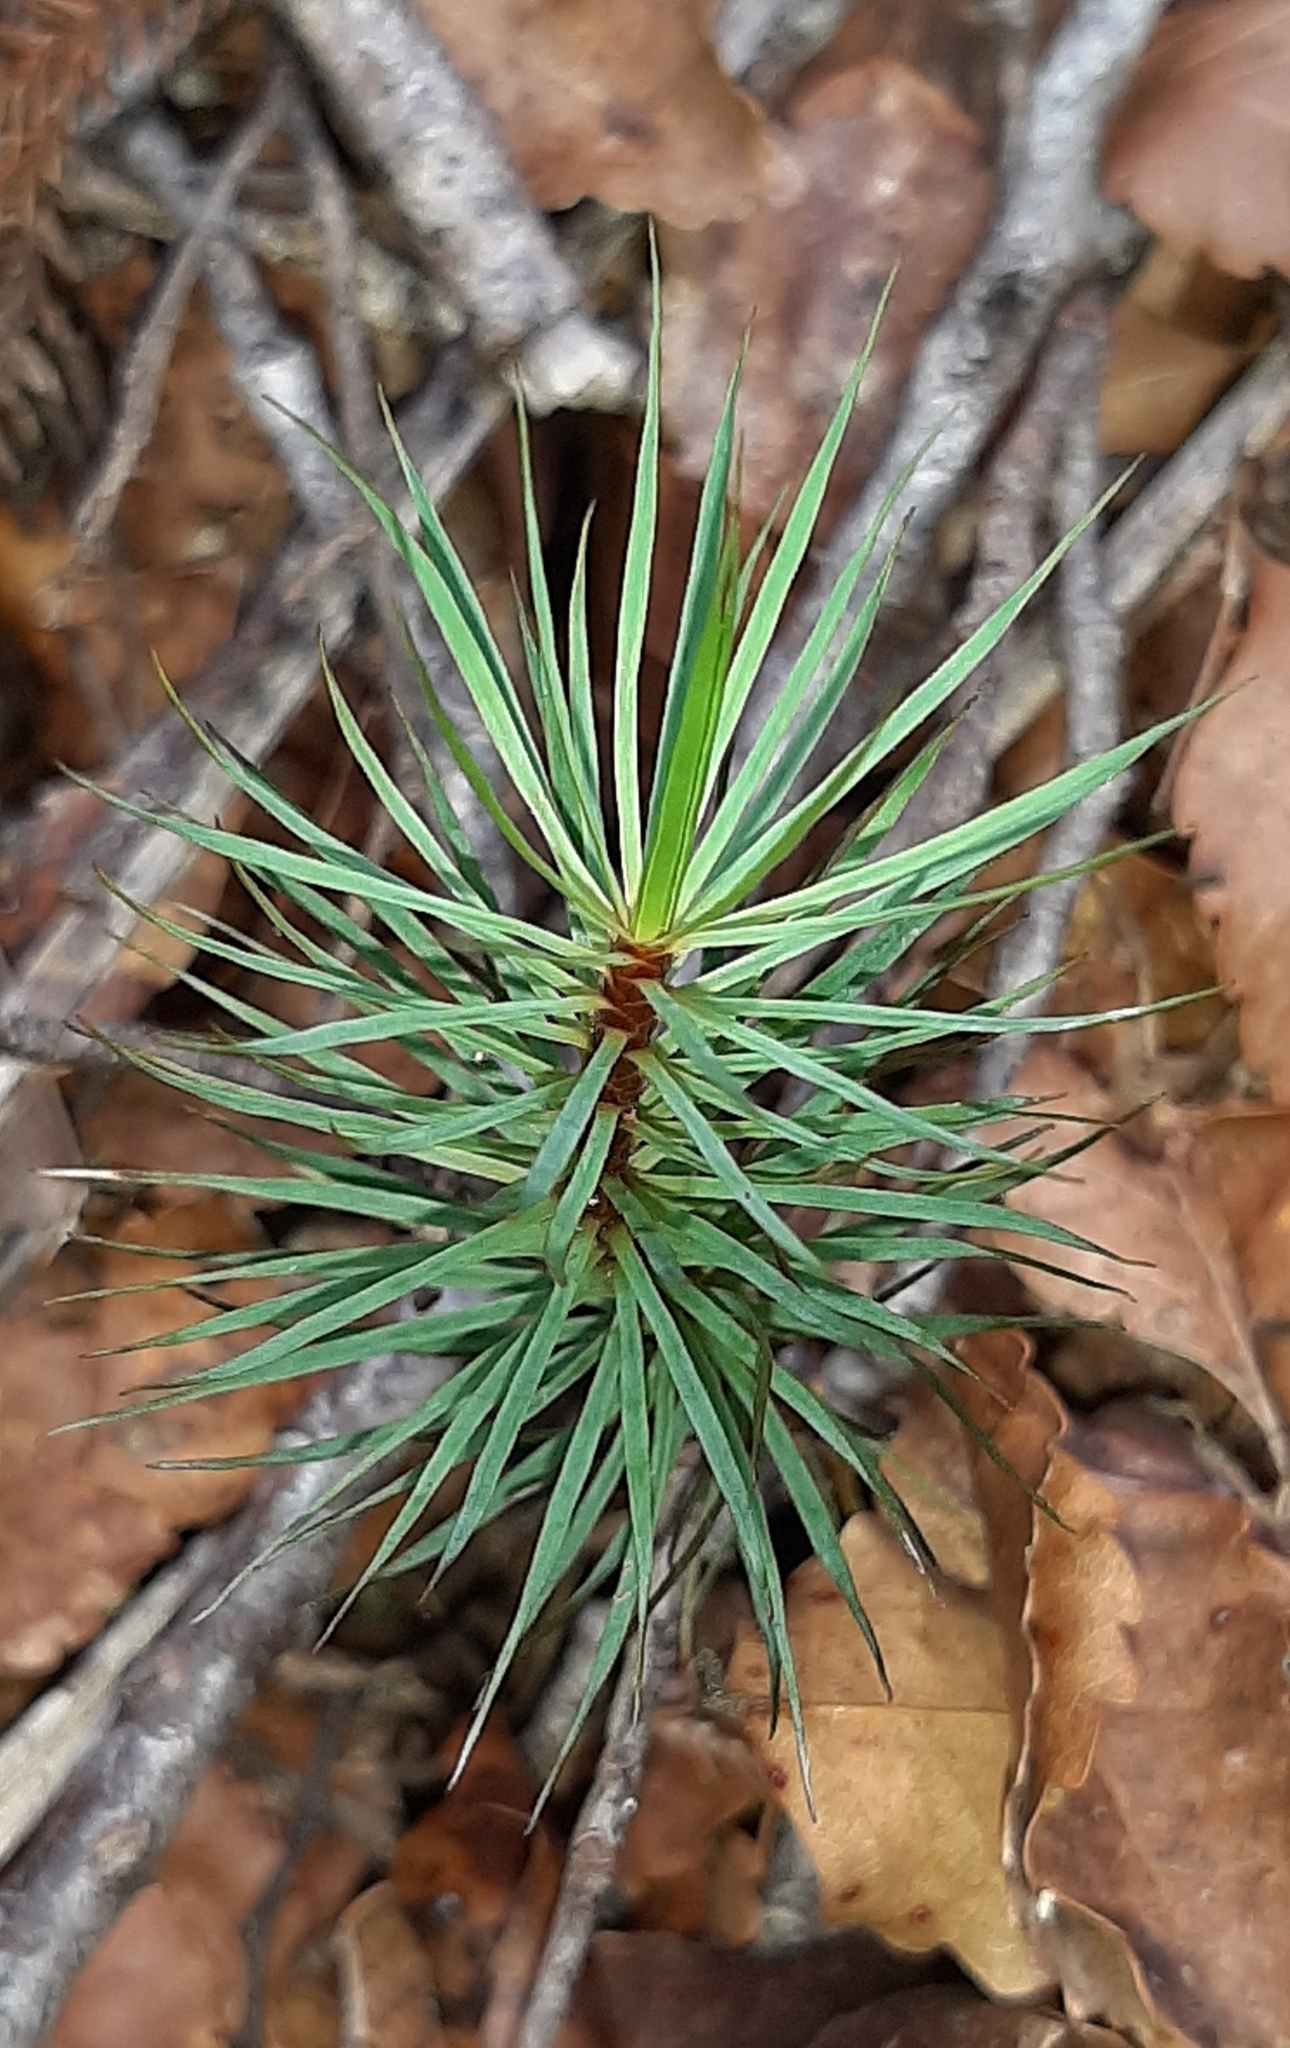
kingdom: Plantae
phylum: Bryophyta
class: Polytrichopsida
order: Polytrichales
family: Polytrichaceae
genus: Dawsonia
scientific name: Dawsonia superba
